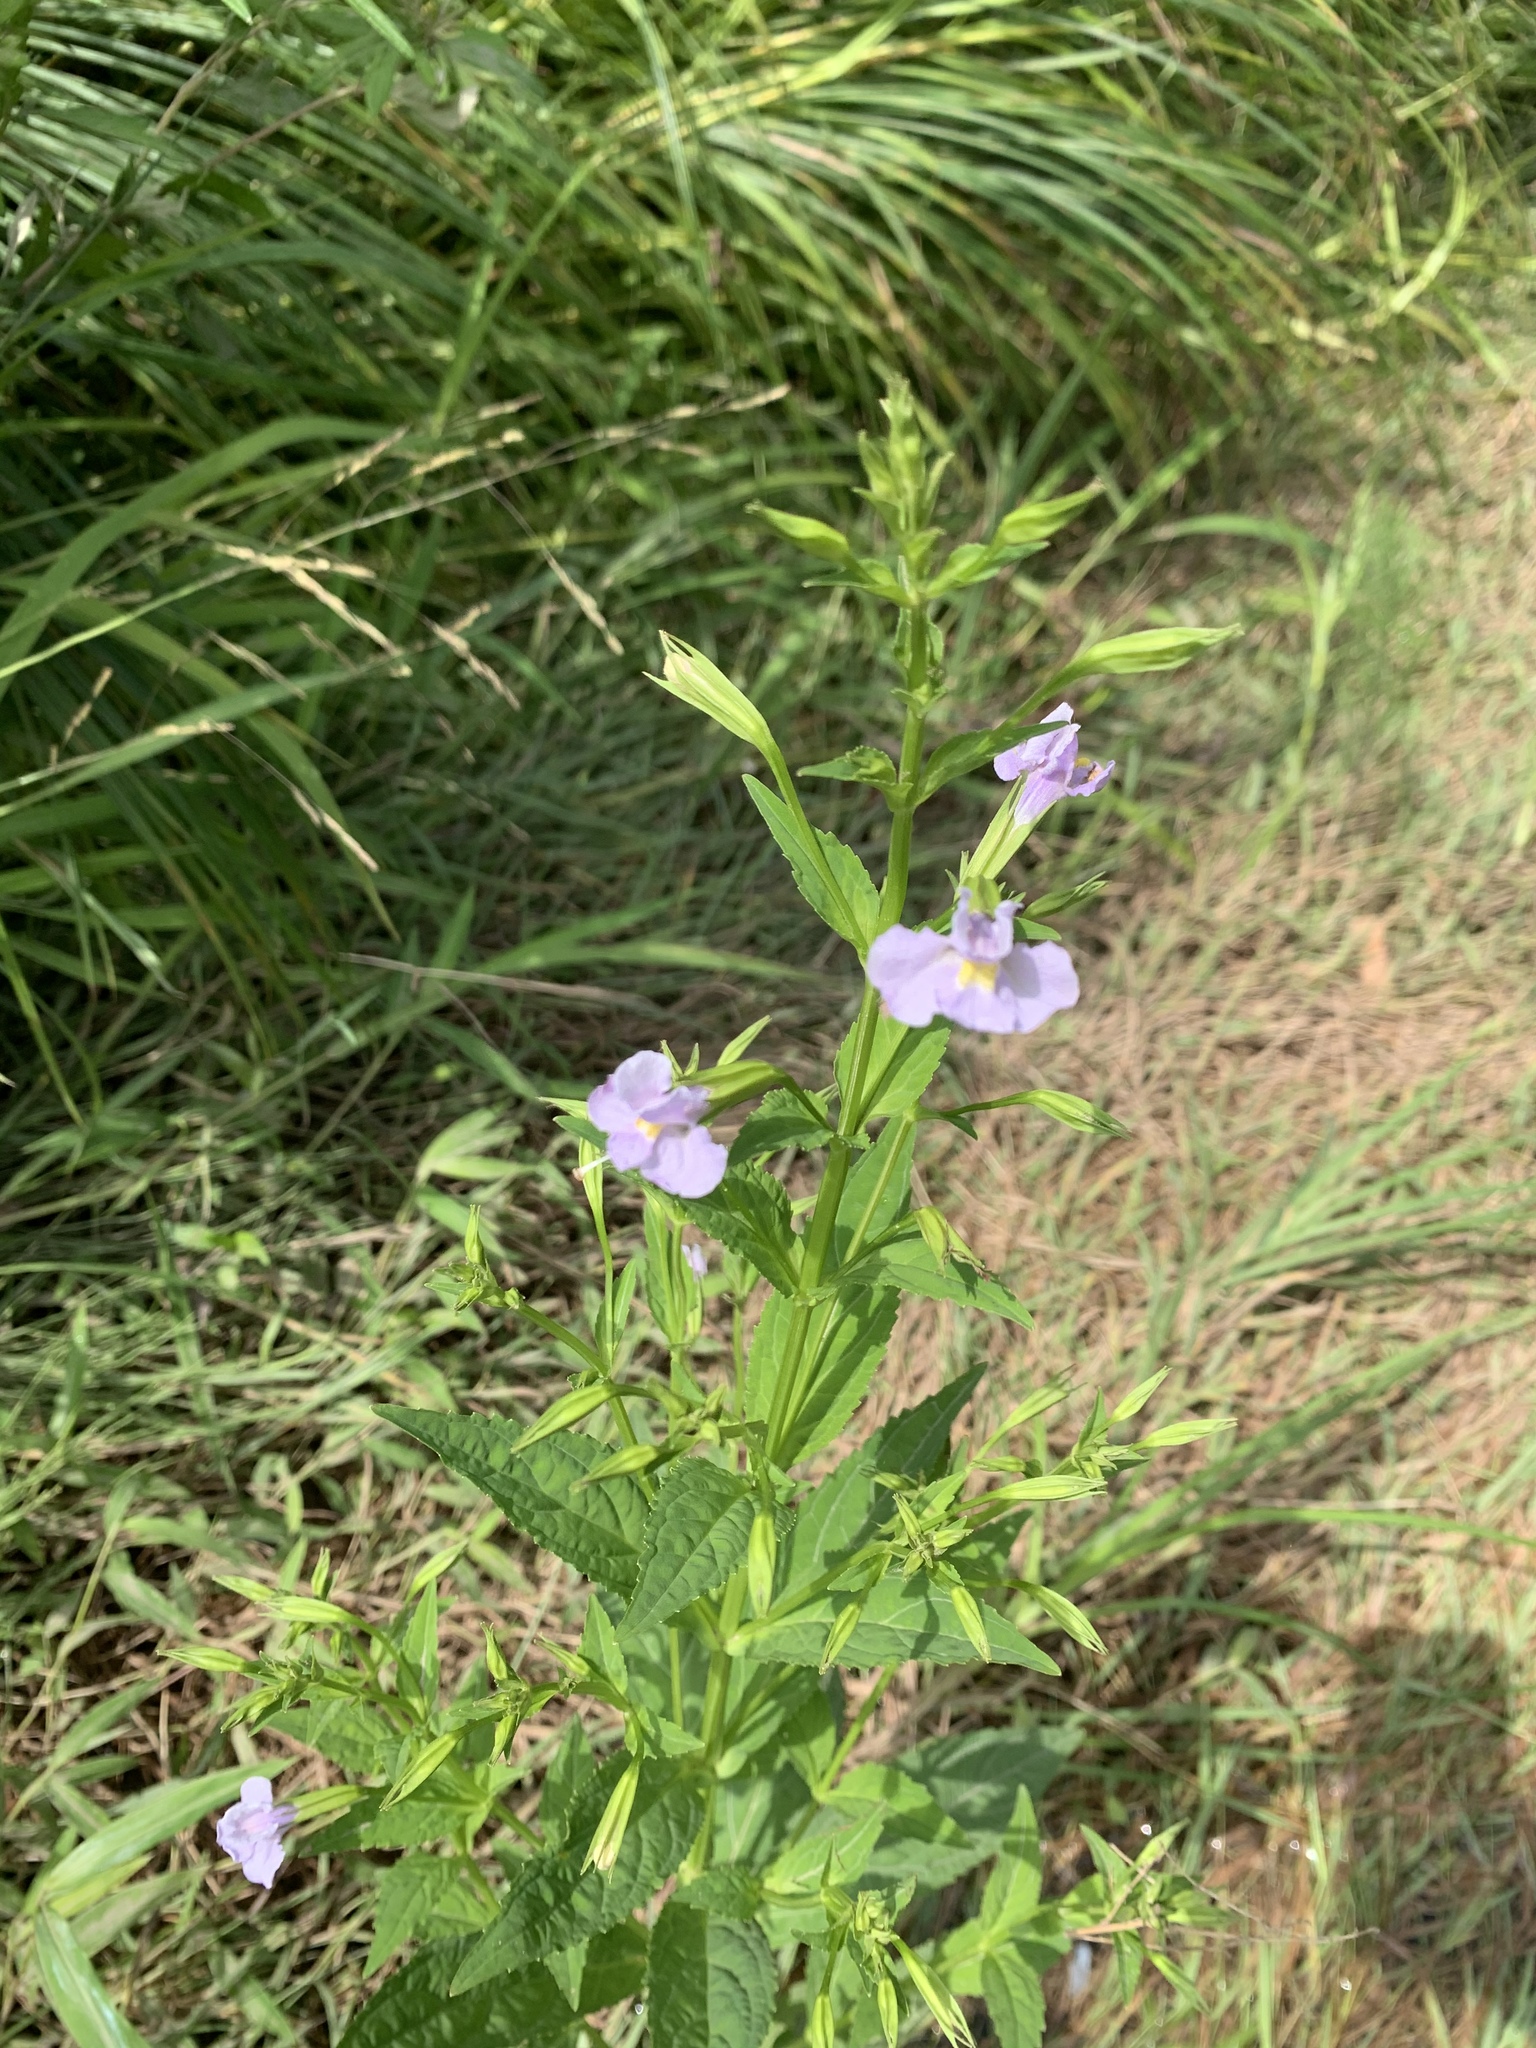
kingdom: Plantae
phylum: Tracheophyta
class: Magnoliopsida
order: Lamiales
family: Phrymaceae
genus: Mimulus
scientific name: Mimulus ringens
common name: Allegheny monkeyflower
